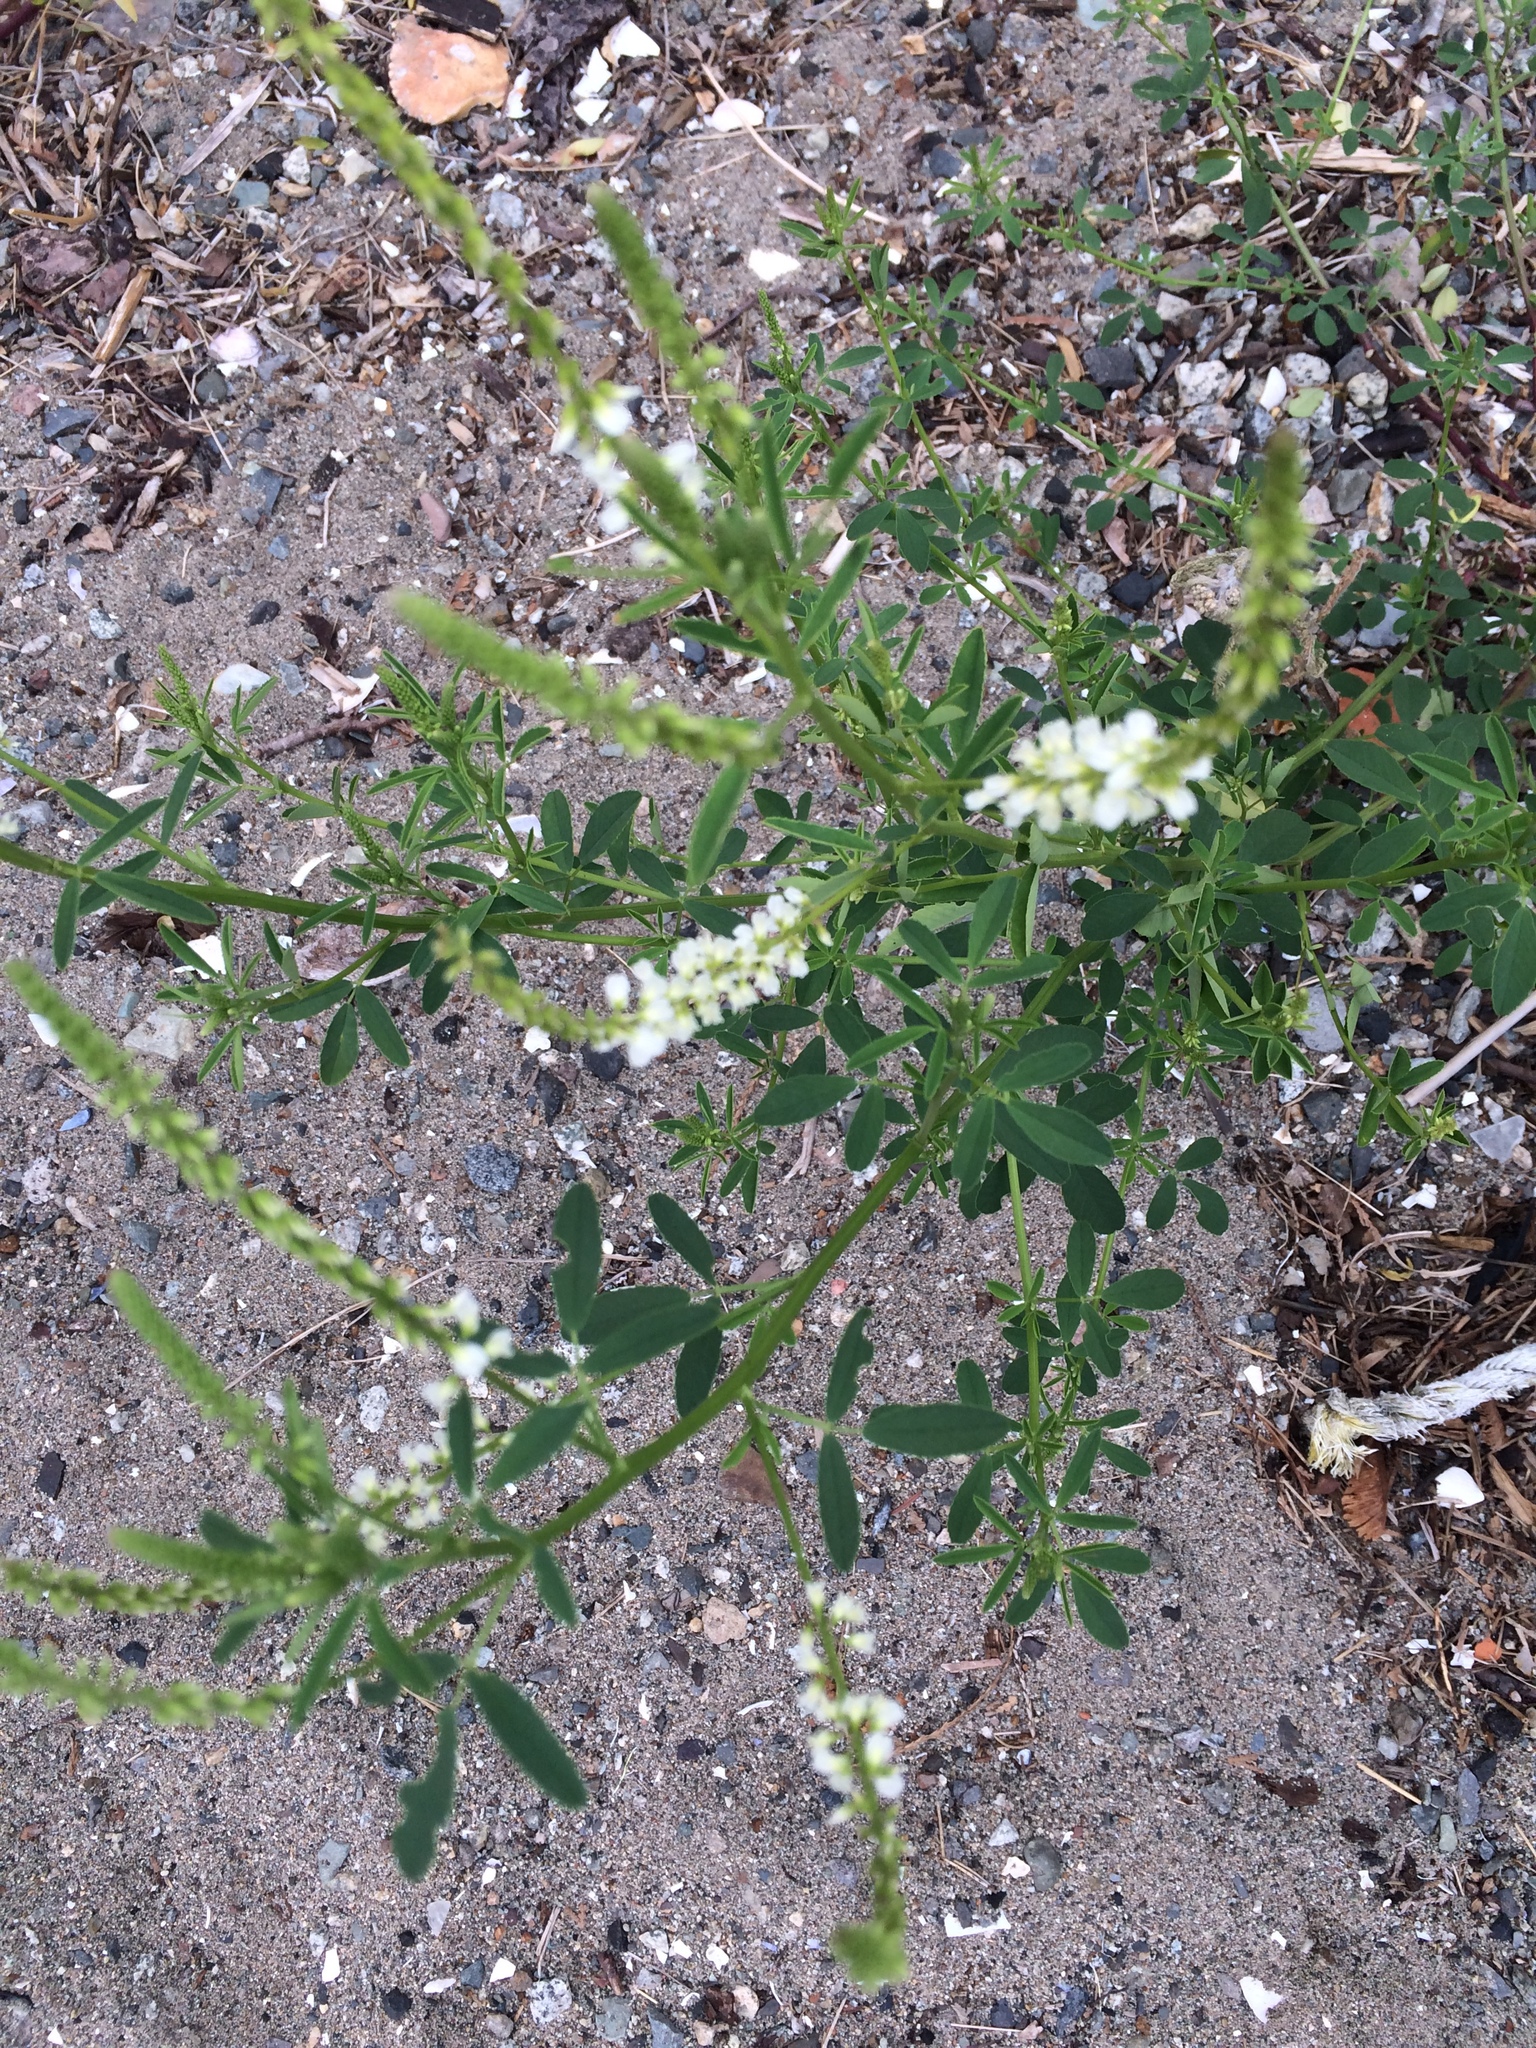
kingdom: Plantae
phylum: Tracheophyta
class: Magnoliopsida
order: Fabales
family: Fabaceae
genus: Melilotus
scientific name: Melilotus albus
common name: White melilot
